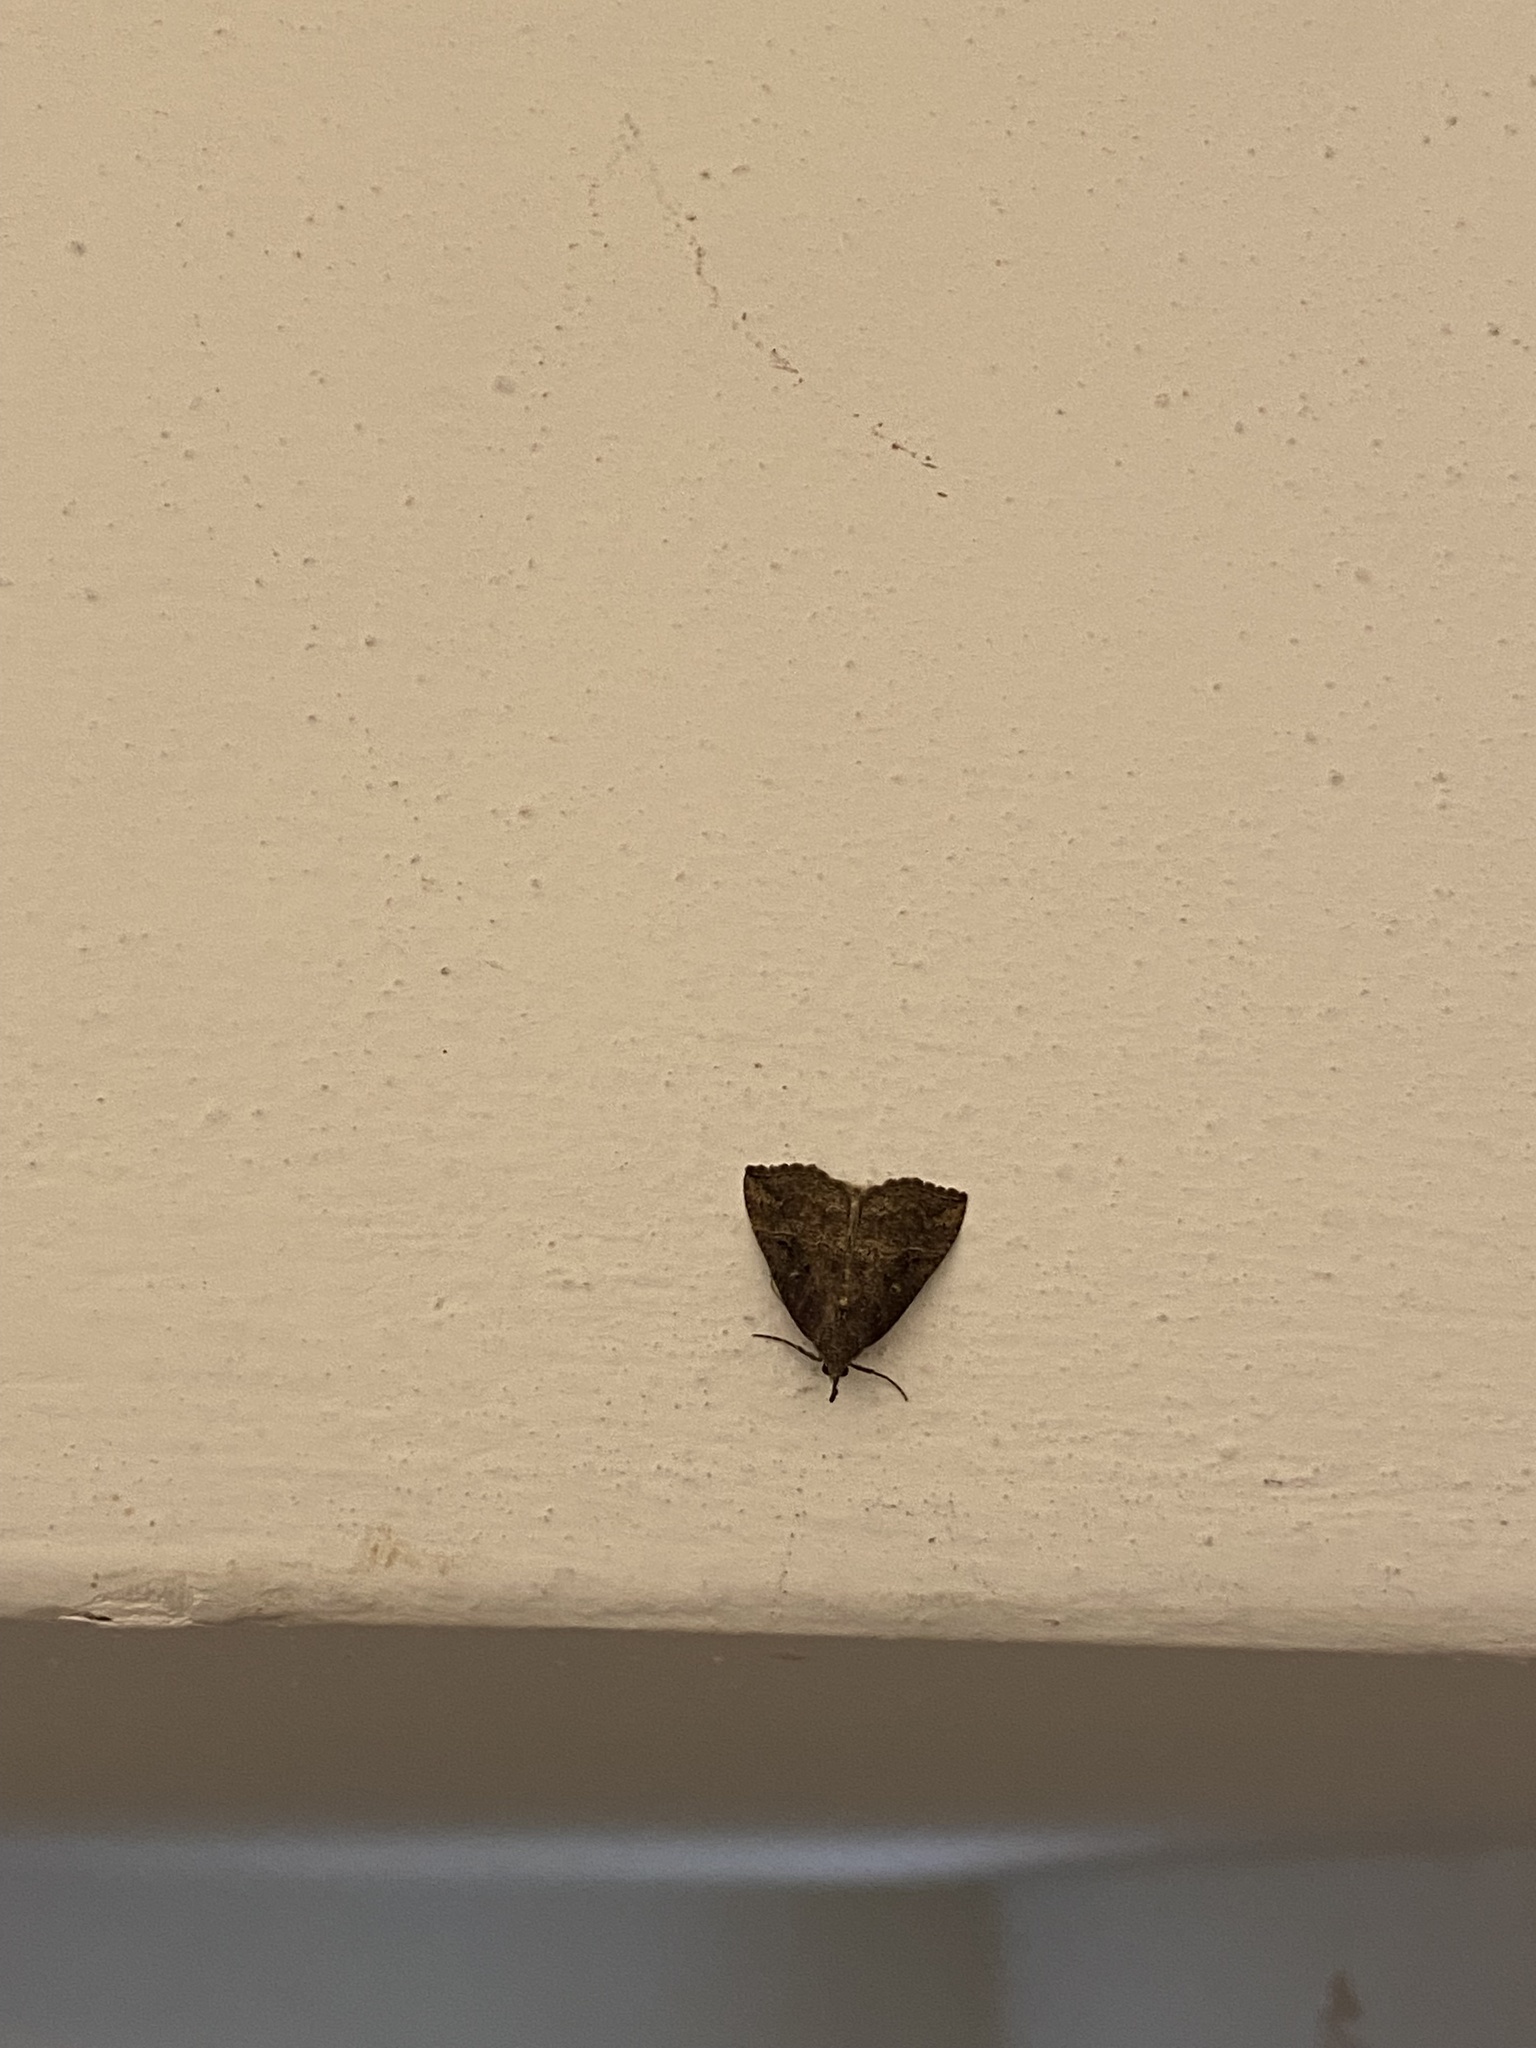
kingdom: Animalia
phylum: Arthropoda
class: Insecta
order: Lepidoptera
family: Erebidae
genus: Hypena
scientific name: Hypena rostralis
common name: Buttoned snout
